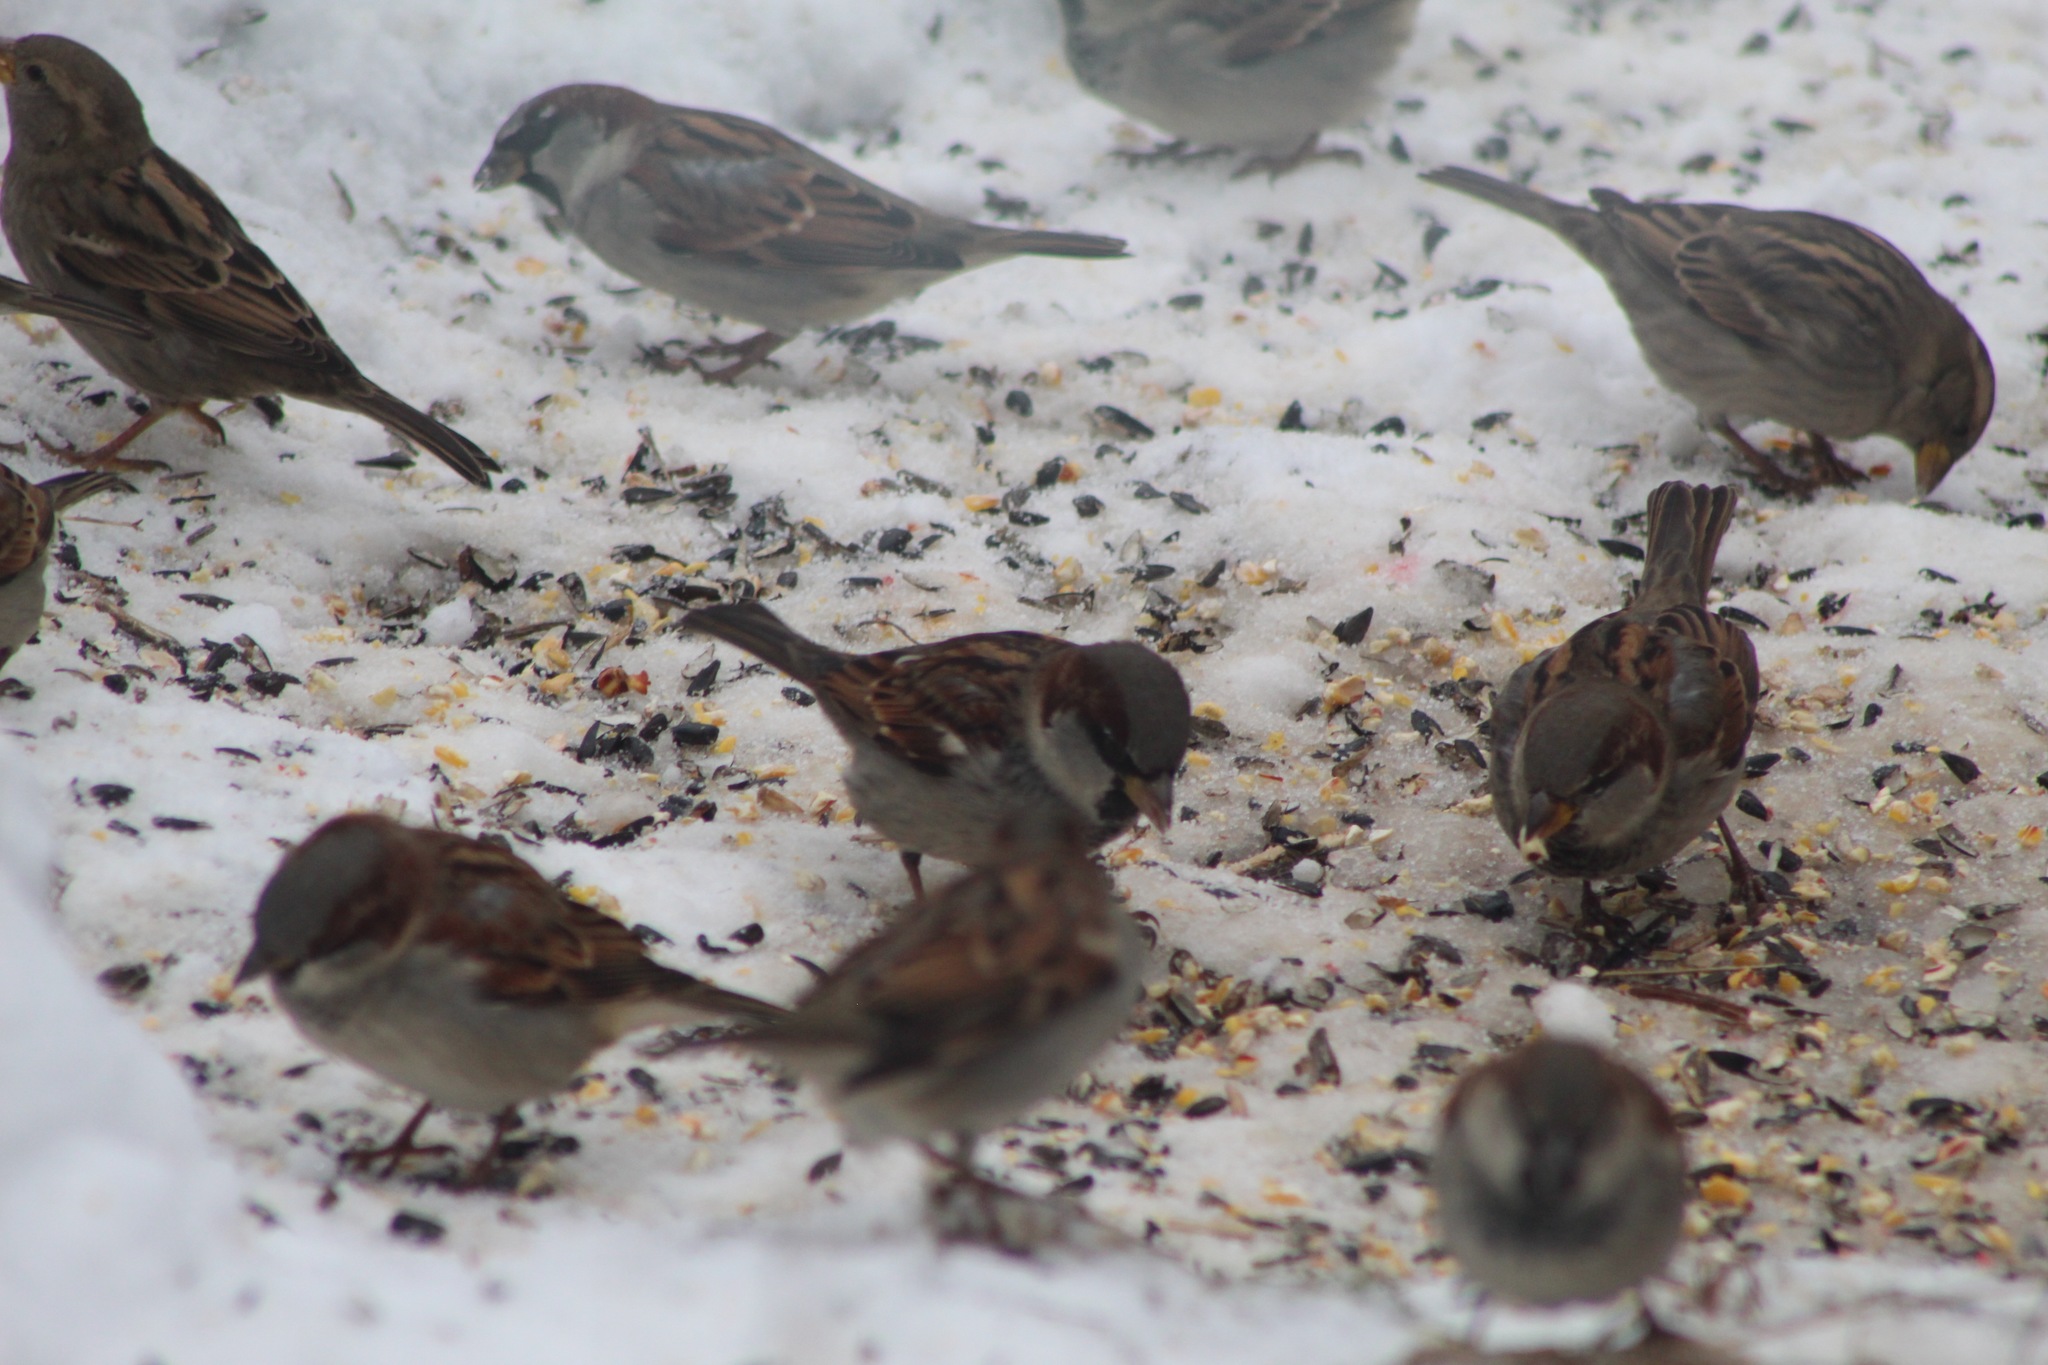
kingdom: Animalia
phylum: Chordata
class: Aves
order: Passeriformes
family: Passeridae
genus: Passer
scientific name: Passer domesticus
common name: House sparrow
